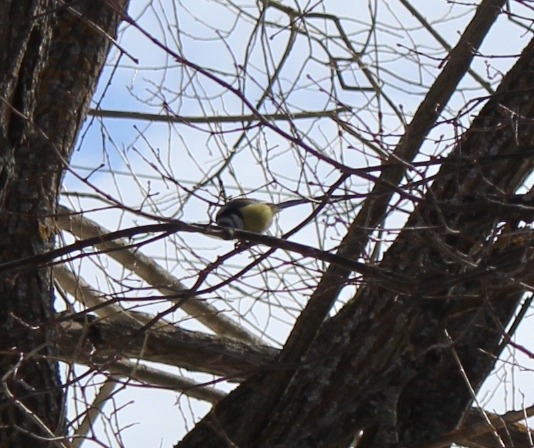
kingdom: Animalia
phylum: Chordata
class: Aves
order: Passeriformes
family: Paridae
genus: Cyanistes
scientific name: Cyanistes caeruleus
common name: Eurasian blue tit
